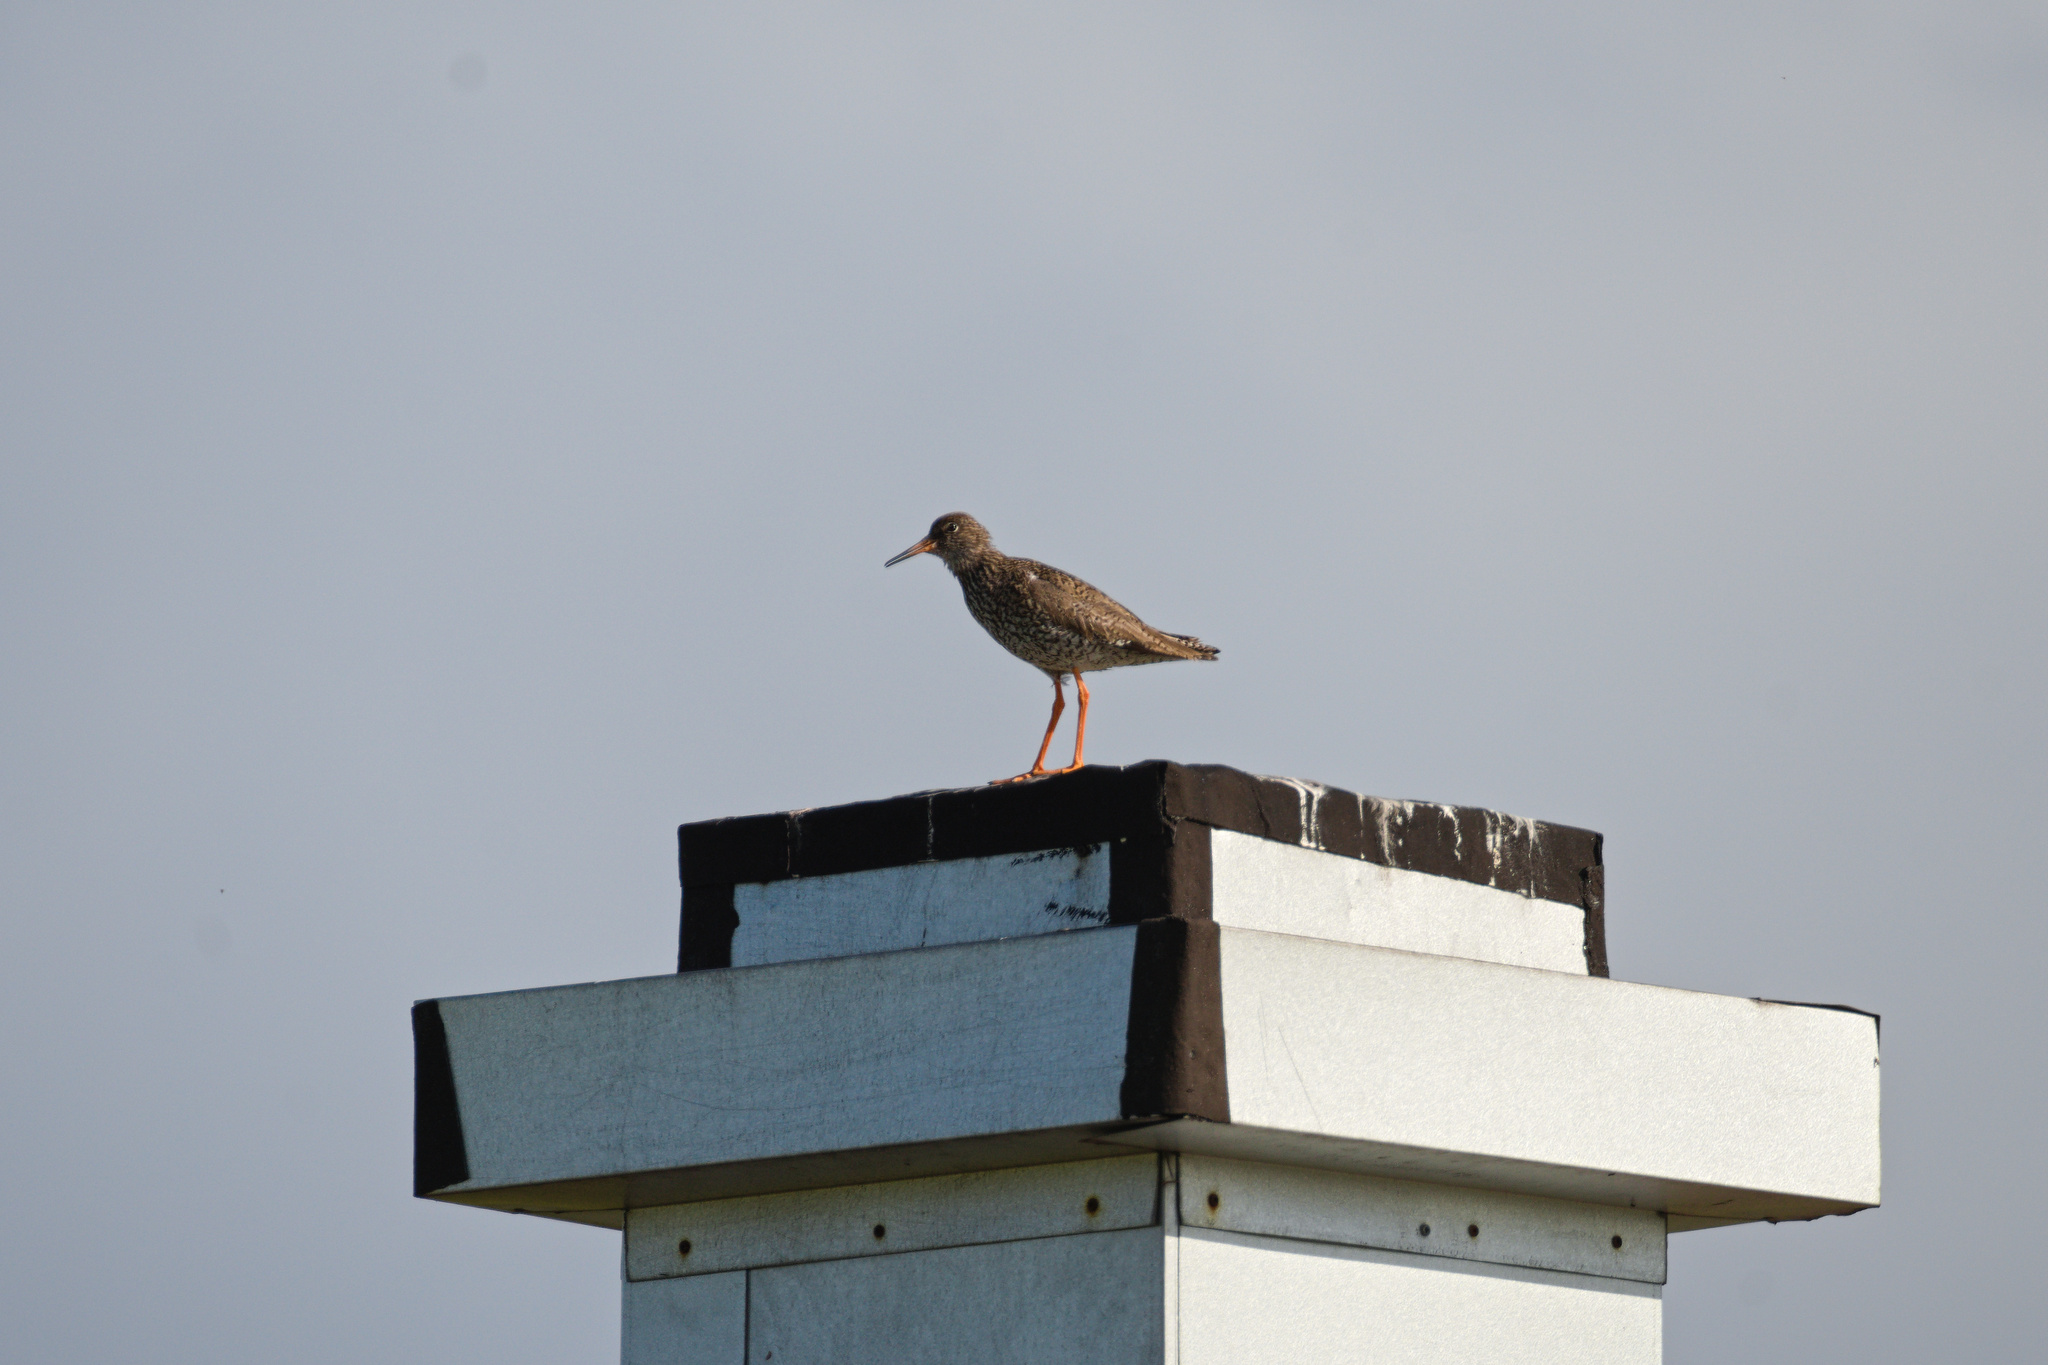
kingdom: Animalia
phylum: Chordata
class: Aves
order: Charadriiformes
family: Scolopacidae
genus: Tringa
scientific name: Tringa totanus
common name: Common redshank
